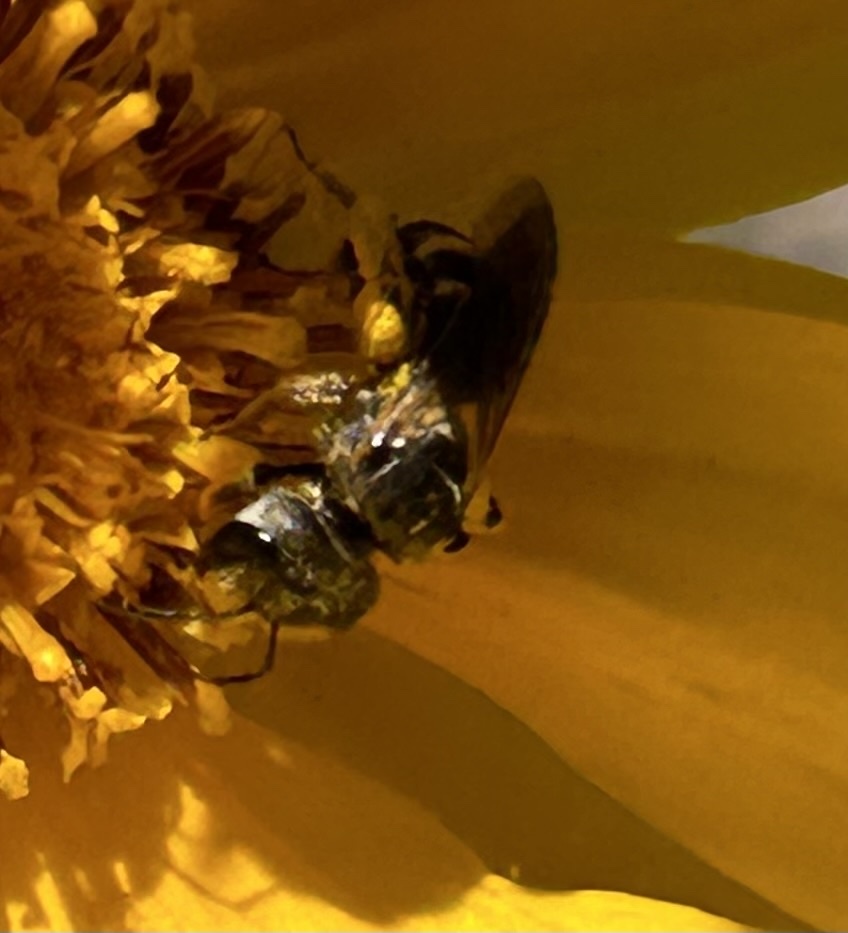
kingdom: Animalia
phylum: Arthropoda
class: Insecta
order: Hymenoptera
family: Halictidae
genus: Halictus
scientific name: Halictus ligatus
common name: Ligated furrow bee
